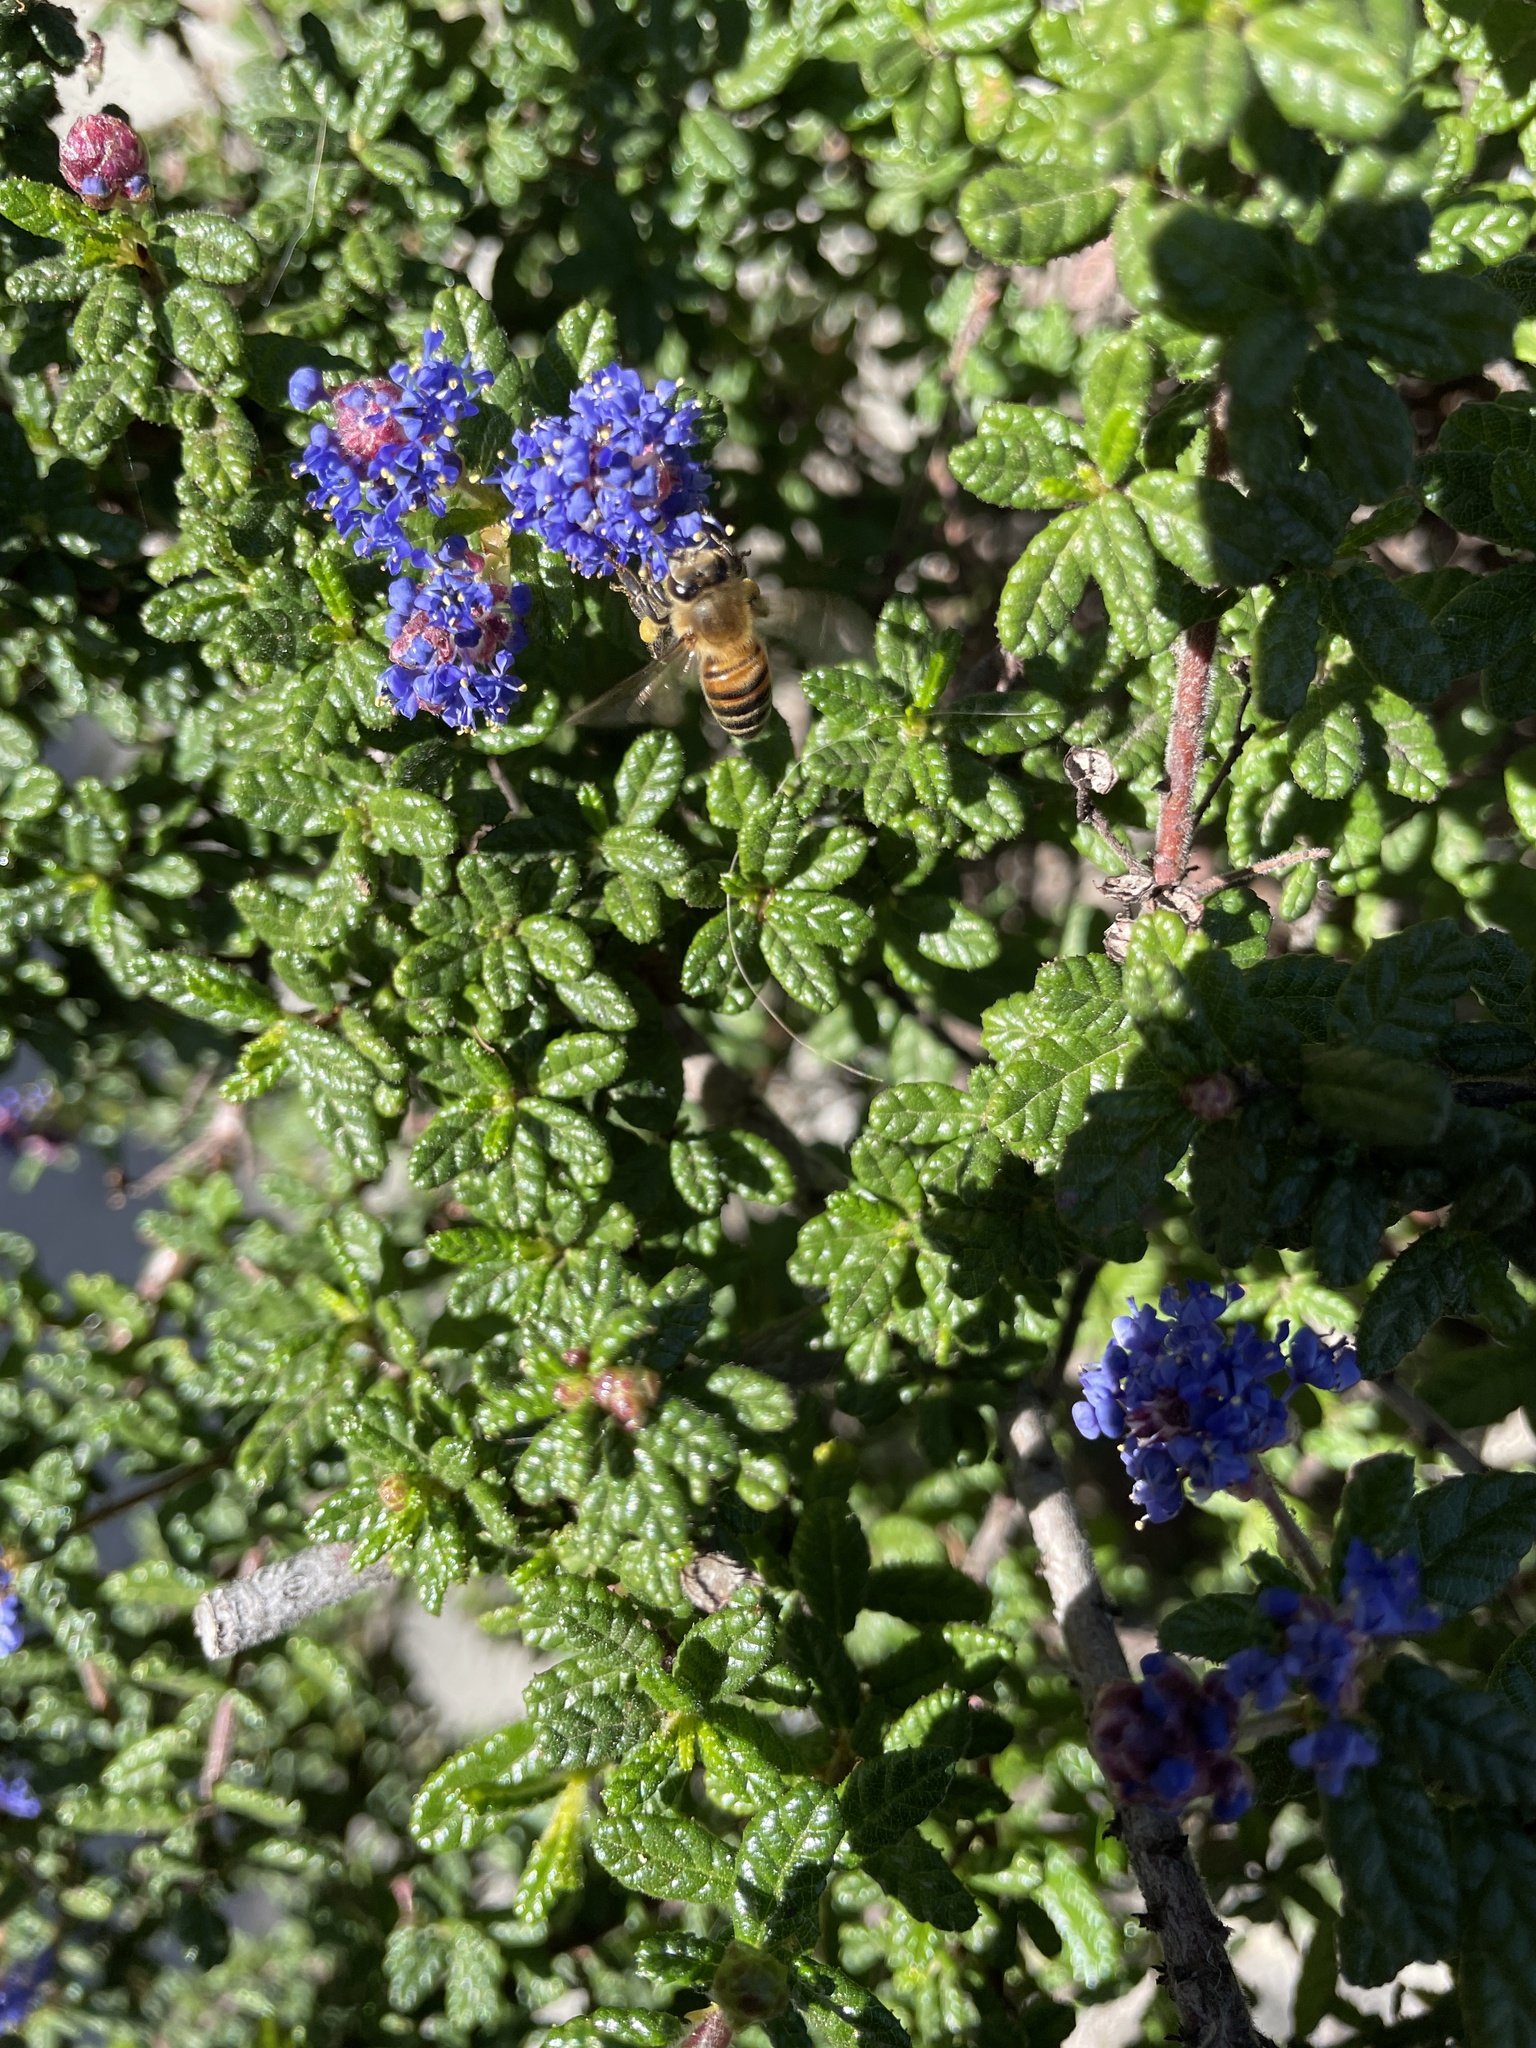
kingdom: Animalia
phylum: Arthropoda
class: Insecta
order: Hymenoptera
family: Apidae
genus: Apis
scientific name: Apis mellifera
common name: Honey bee
